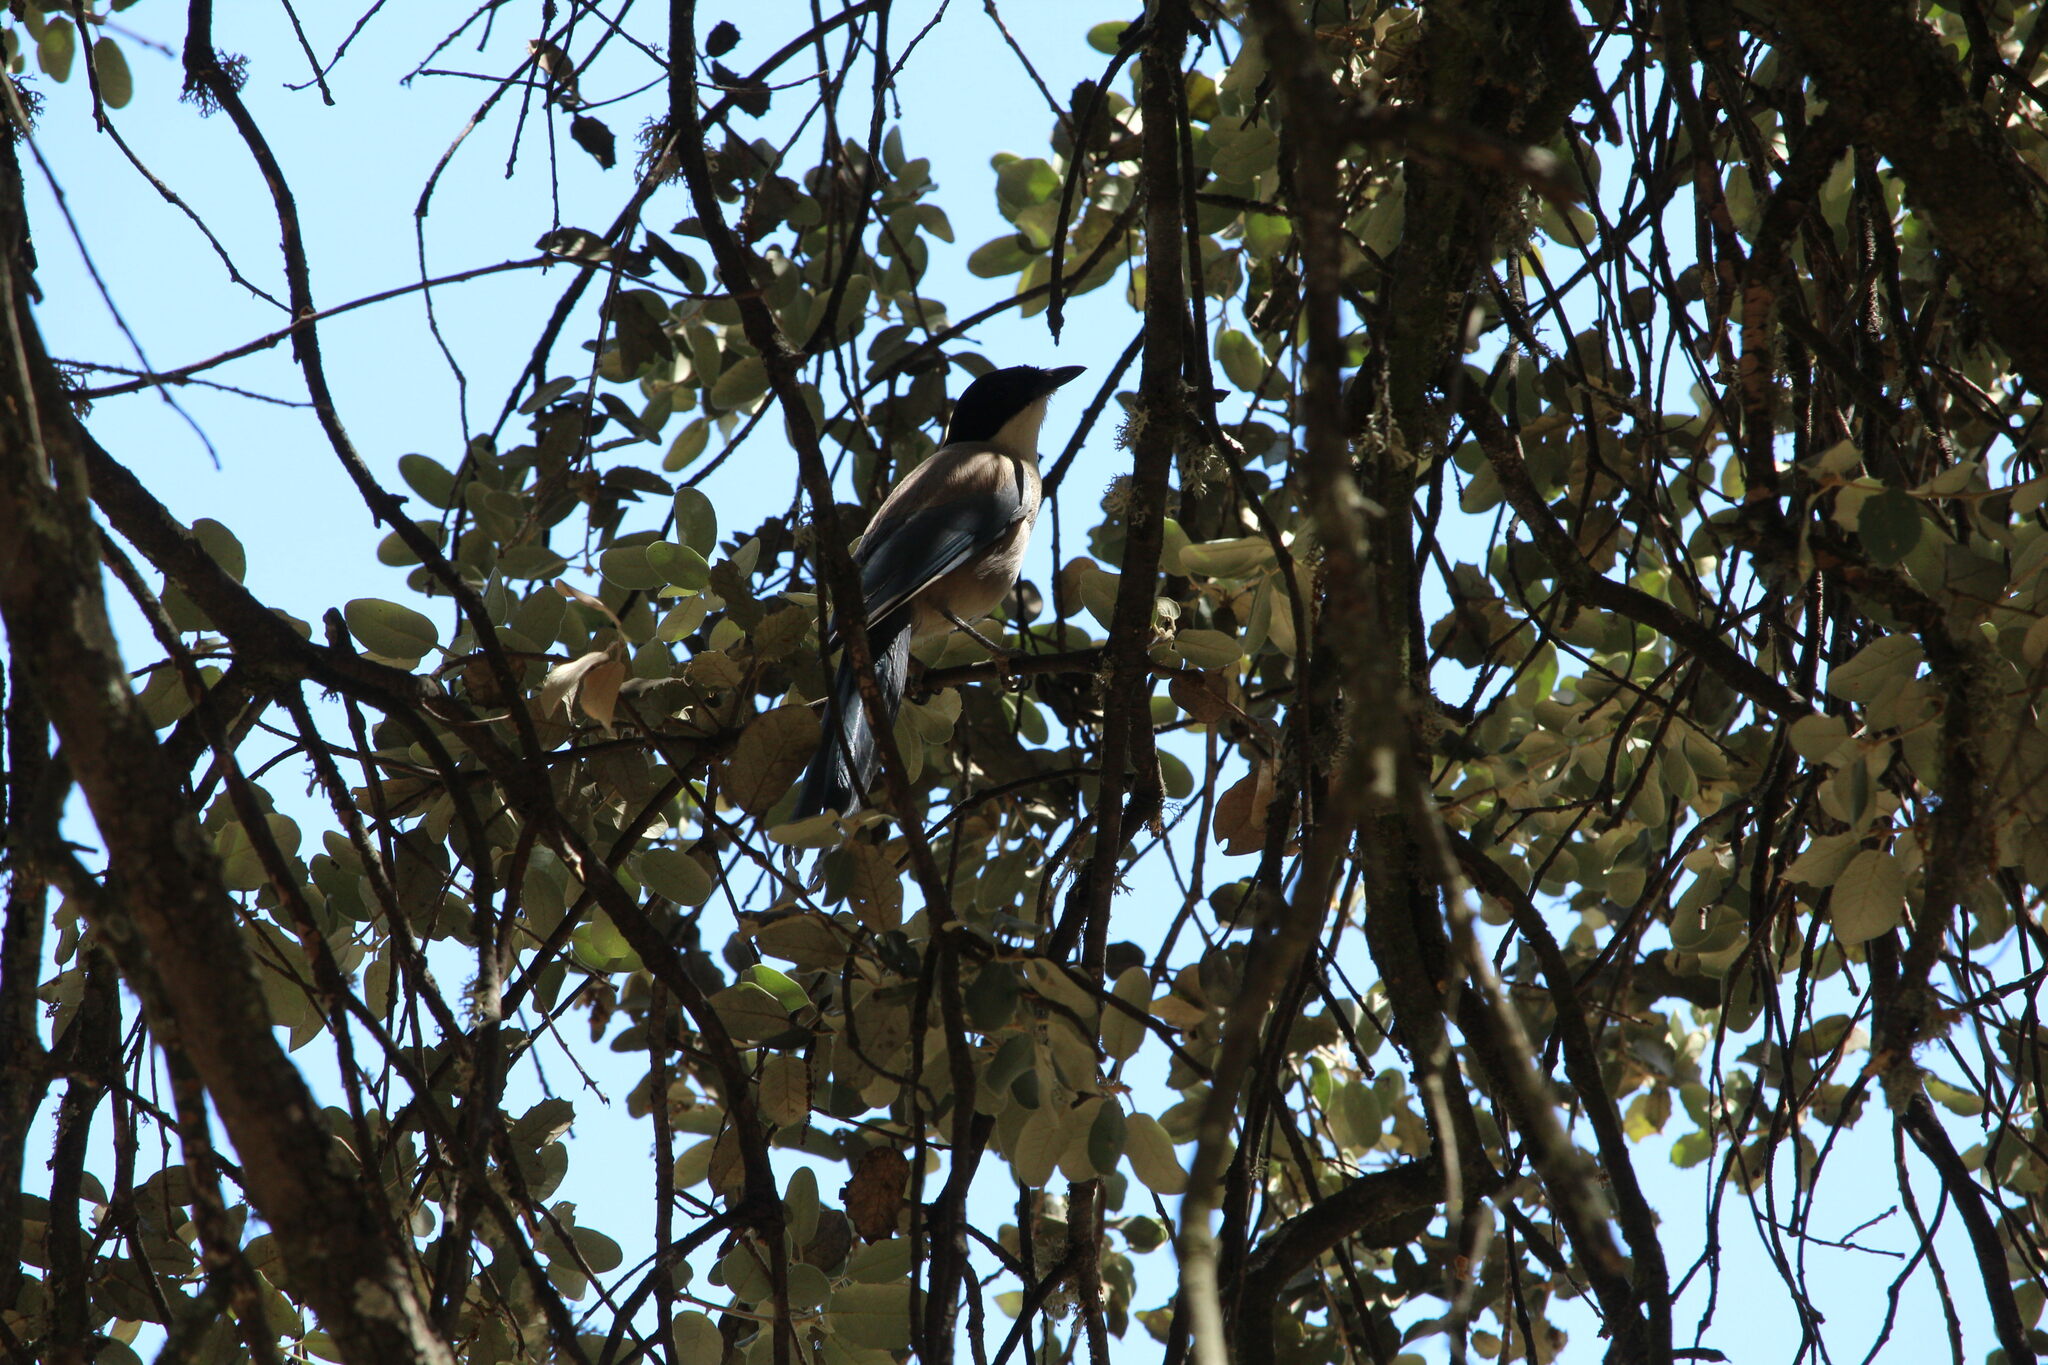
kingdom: Animalia
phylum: Chordata
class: Aves
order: Passeriformes
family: Corvidae
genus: Cyanopica
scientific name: Cyanopica cooki
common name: Iberian magpie
